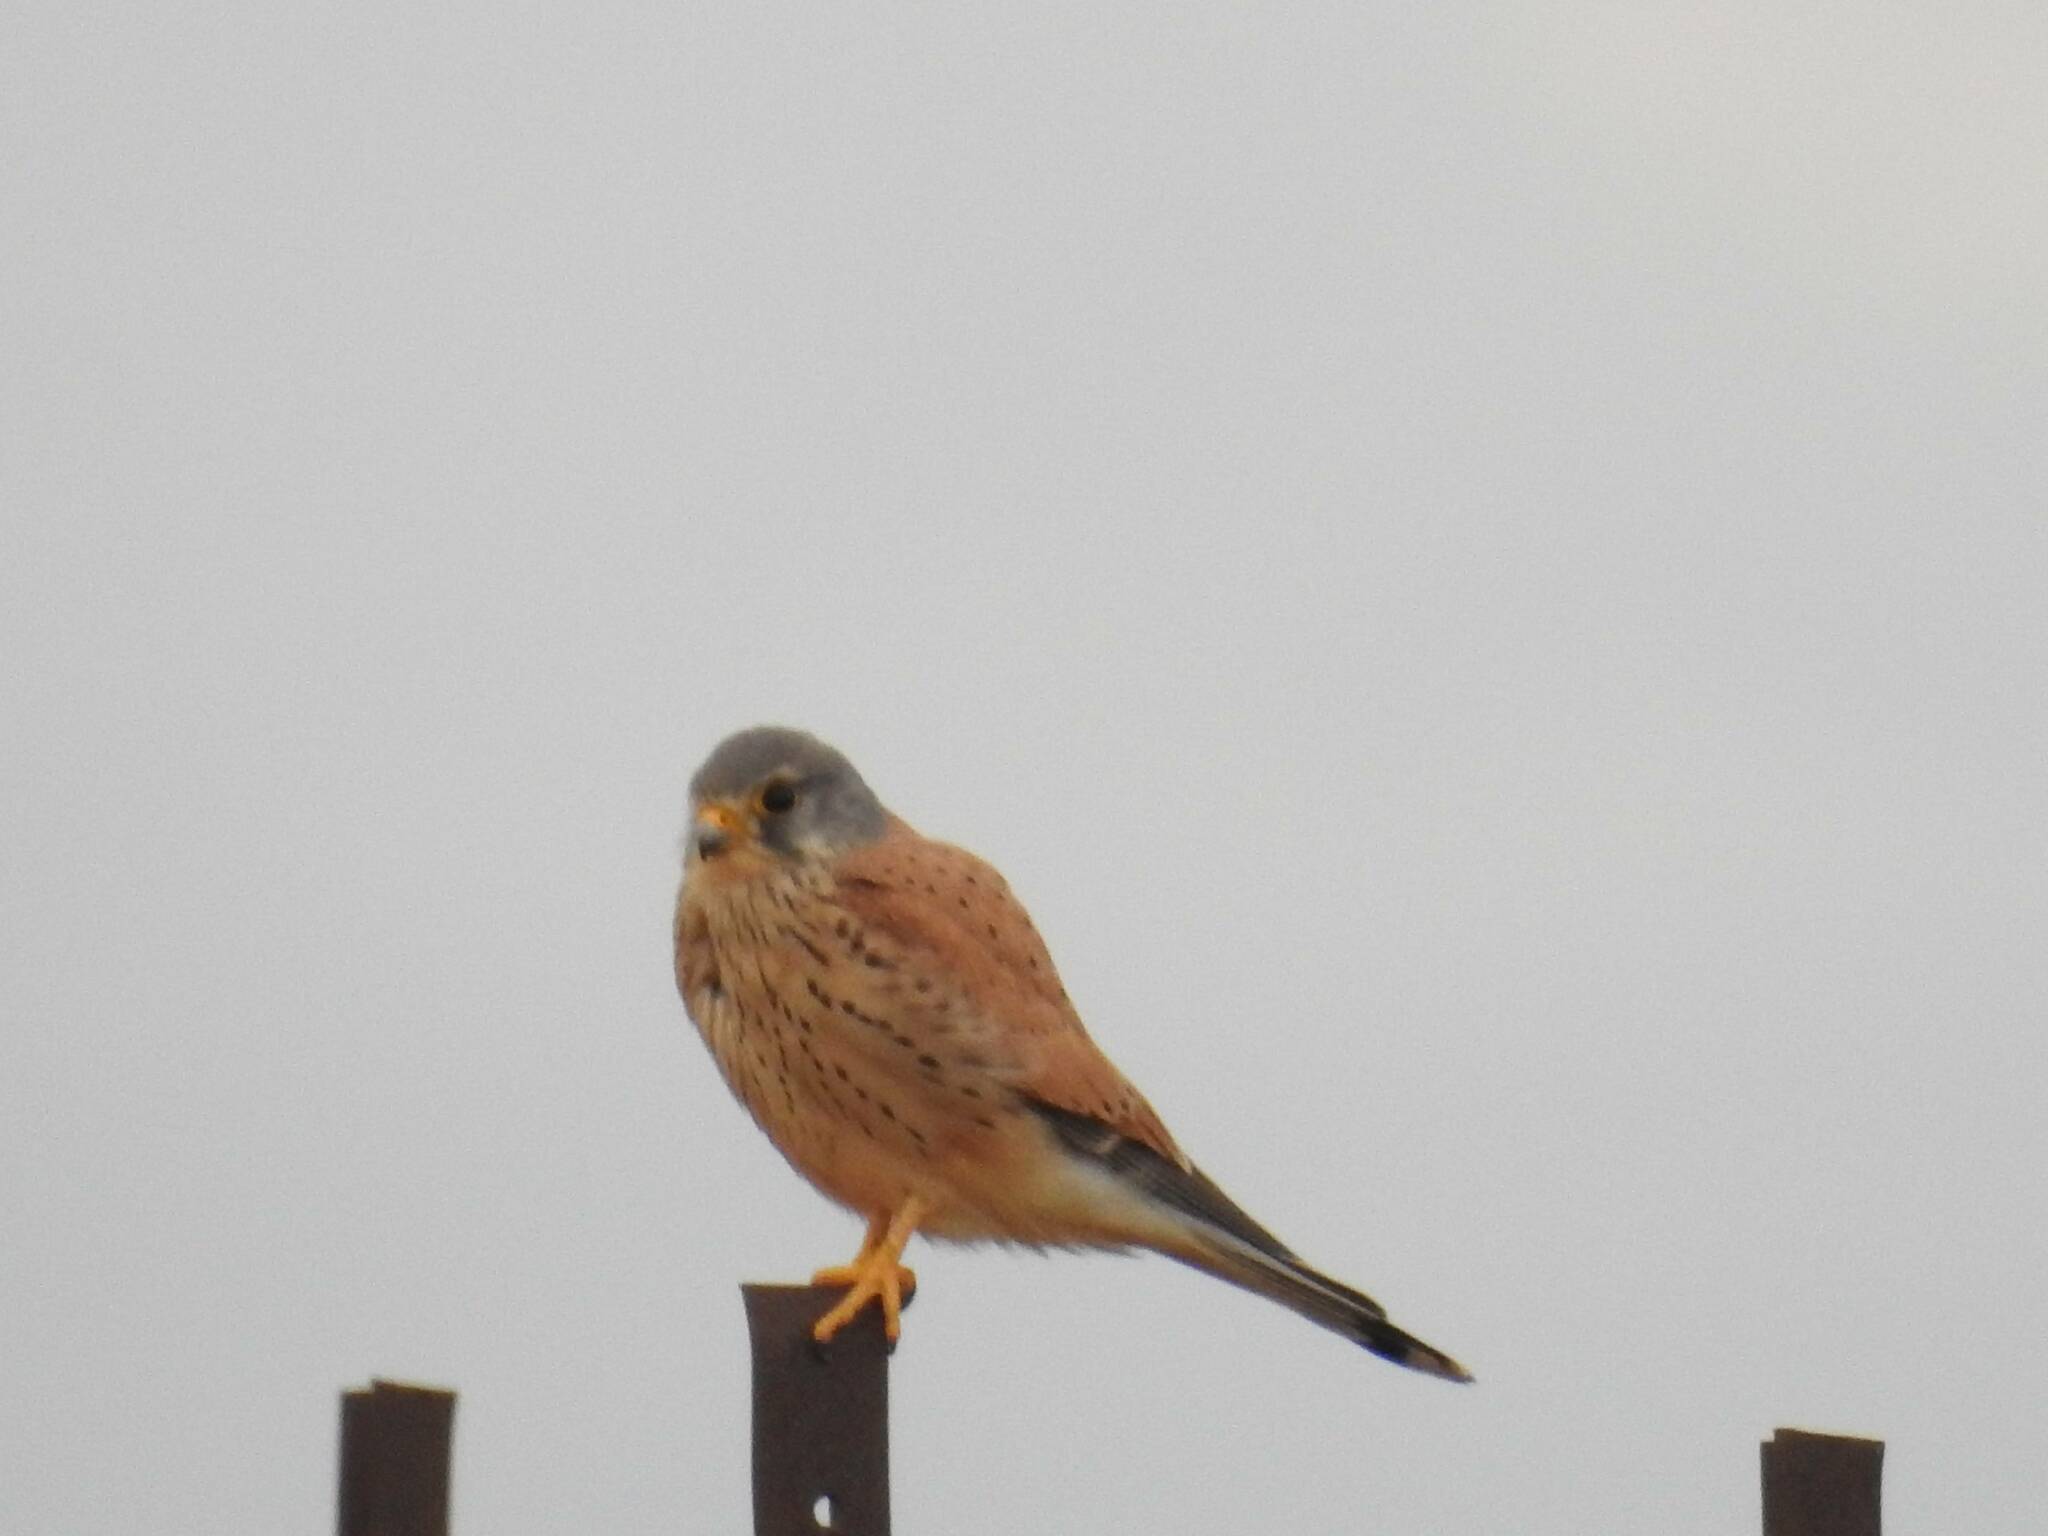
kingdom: Animalia
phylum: Chordata
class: Aves
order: Falconiformes
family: Falconidae
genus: Falco
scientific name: Falco tinnunculus
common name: Common kestrel
